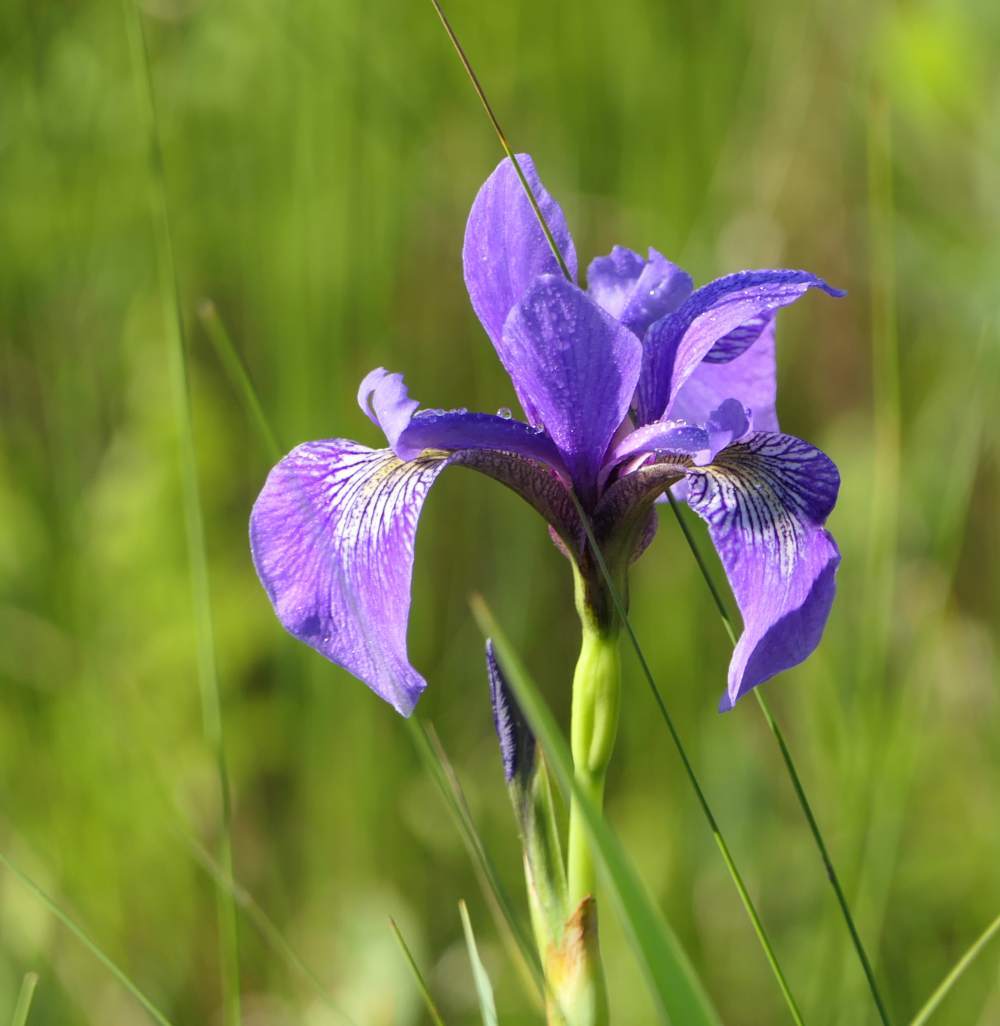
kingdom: Plantae
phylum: Tracheophyta
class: Liliopsida
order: Asparagales
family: Iridaceae
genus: Iris
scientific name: Iris versicolor
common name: Purple iris
